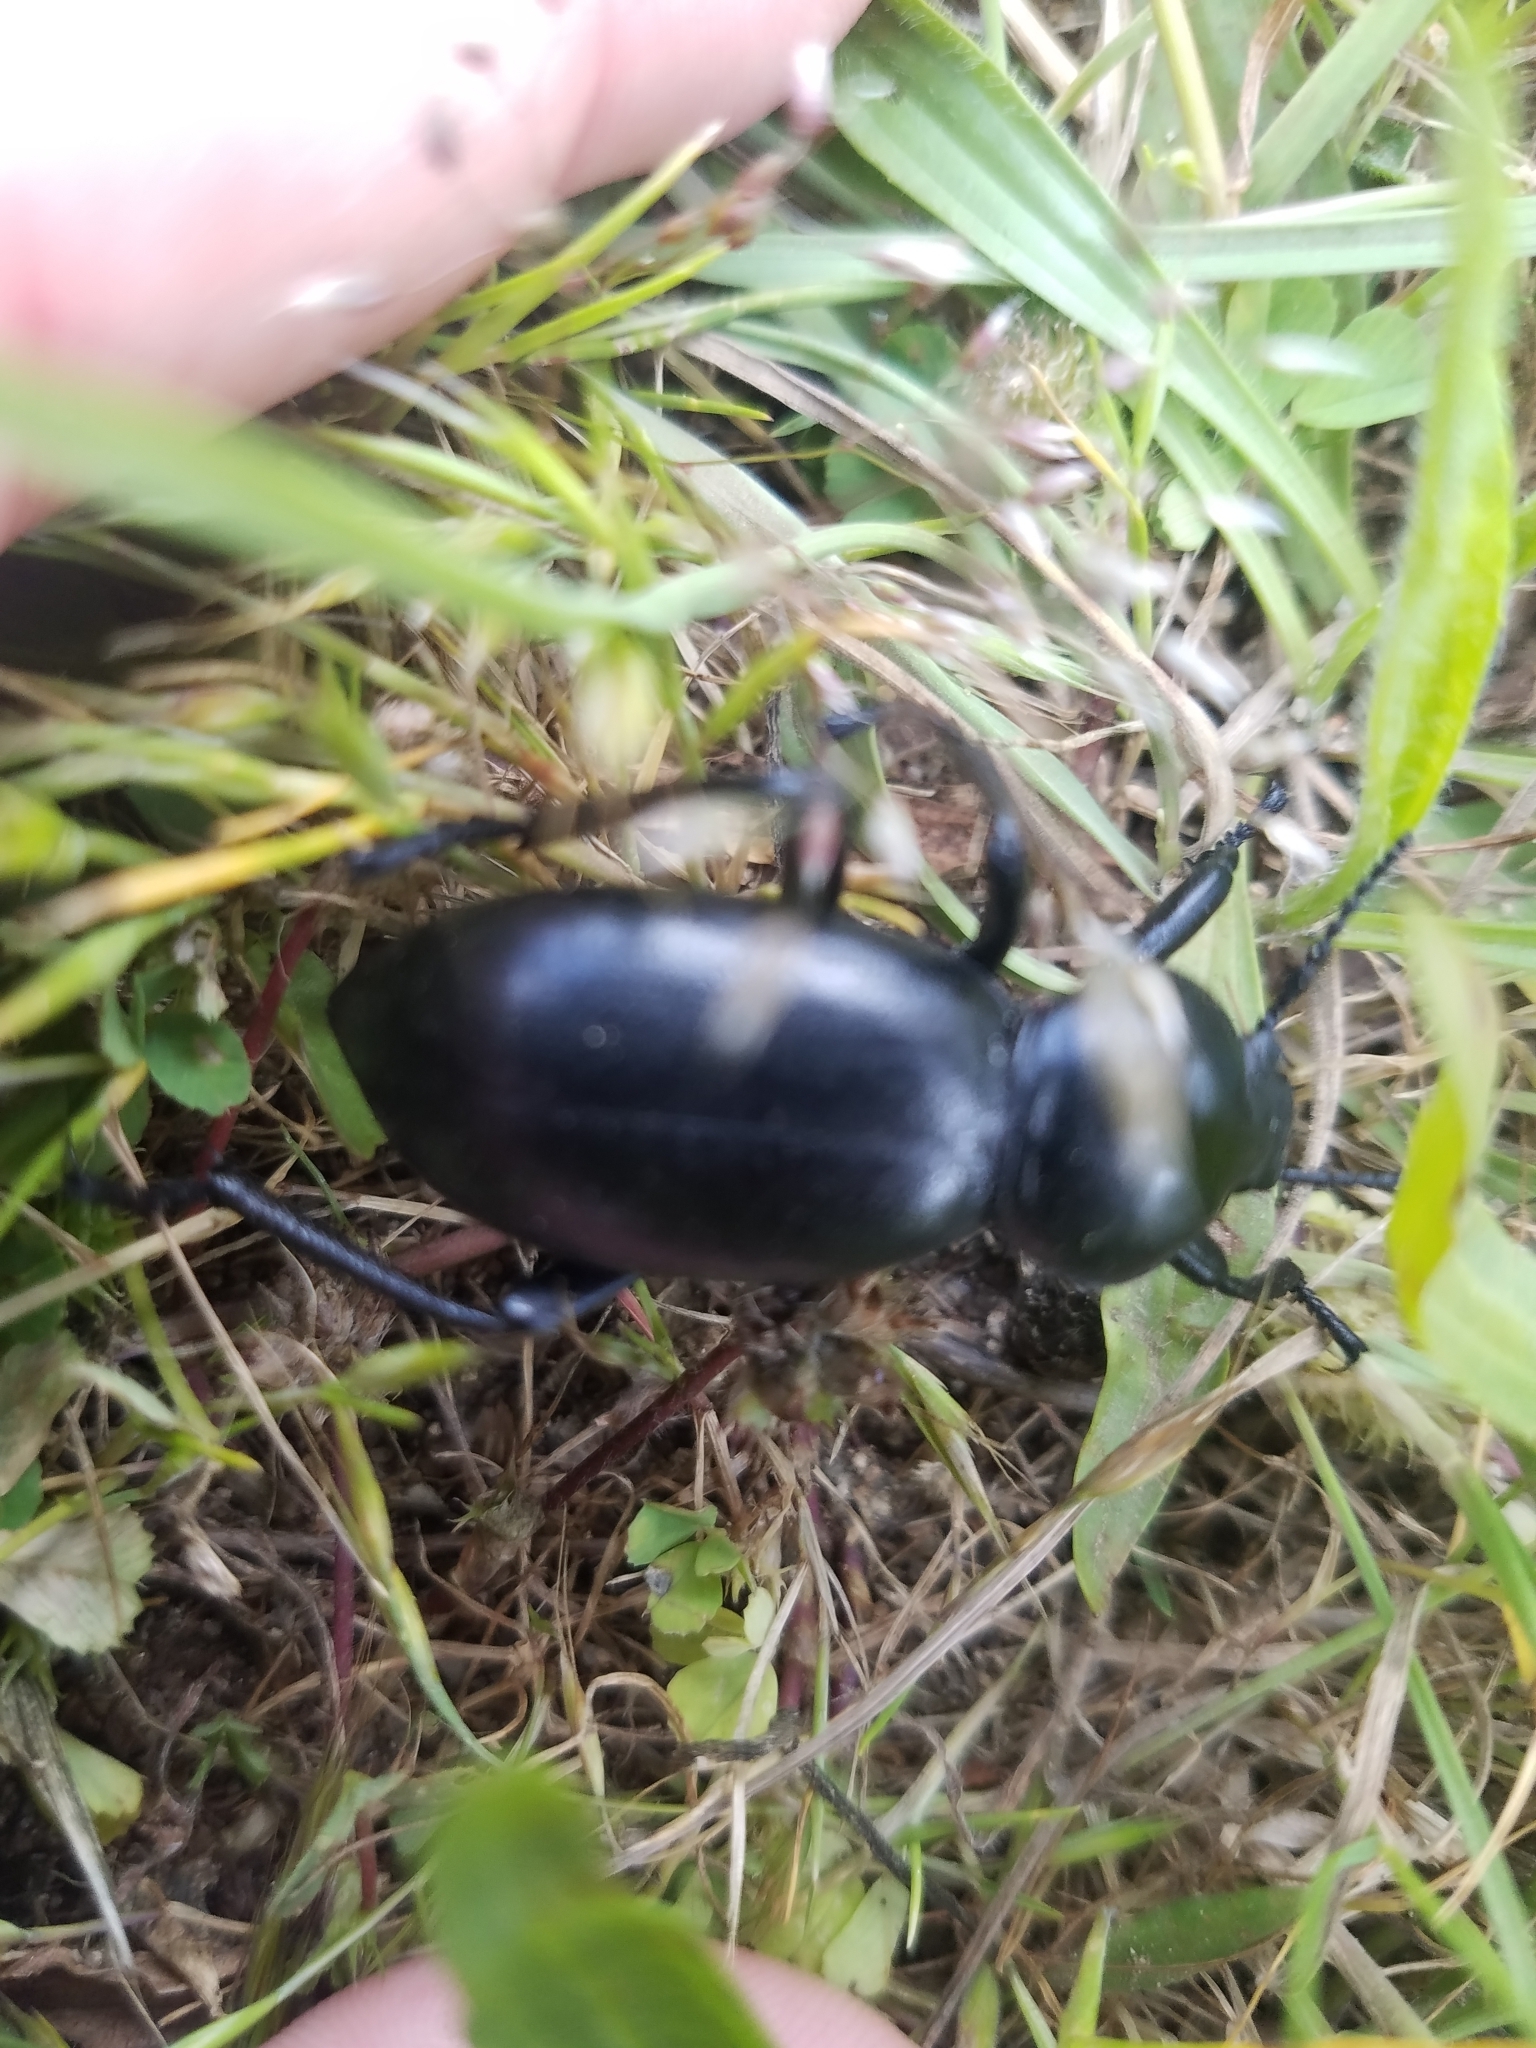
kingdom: Animalia
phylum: Arthropoda
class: Insecta
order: Coleoptera
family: Tenebrionidae
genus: Eleodes
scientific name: Eleodes grandicollis
